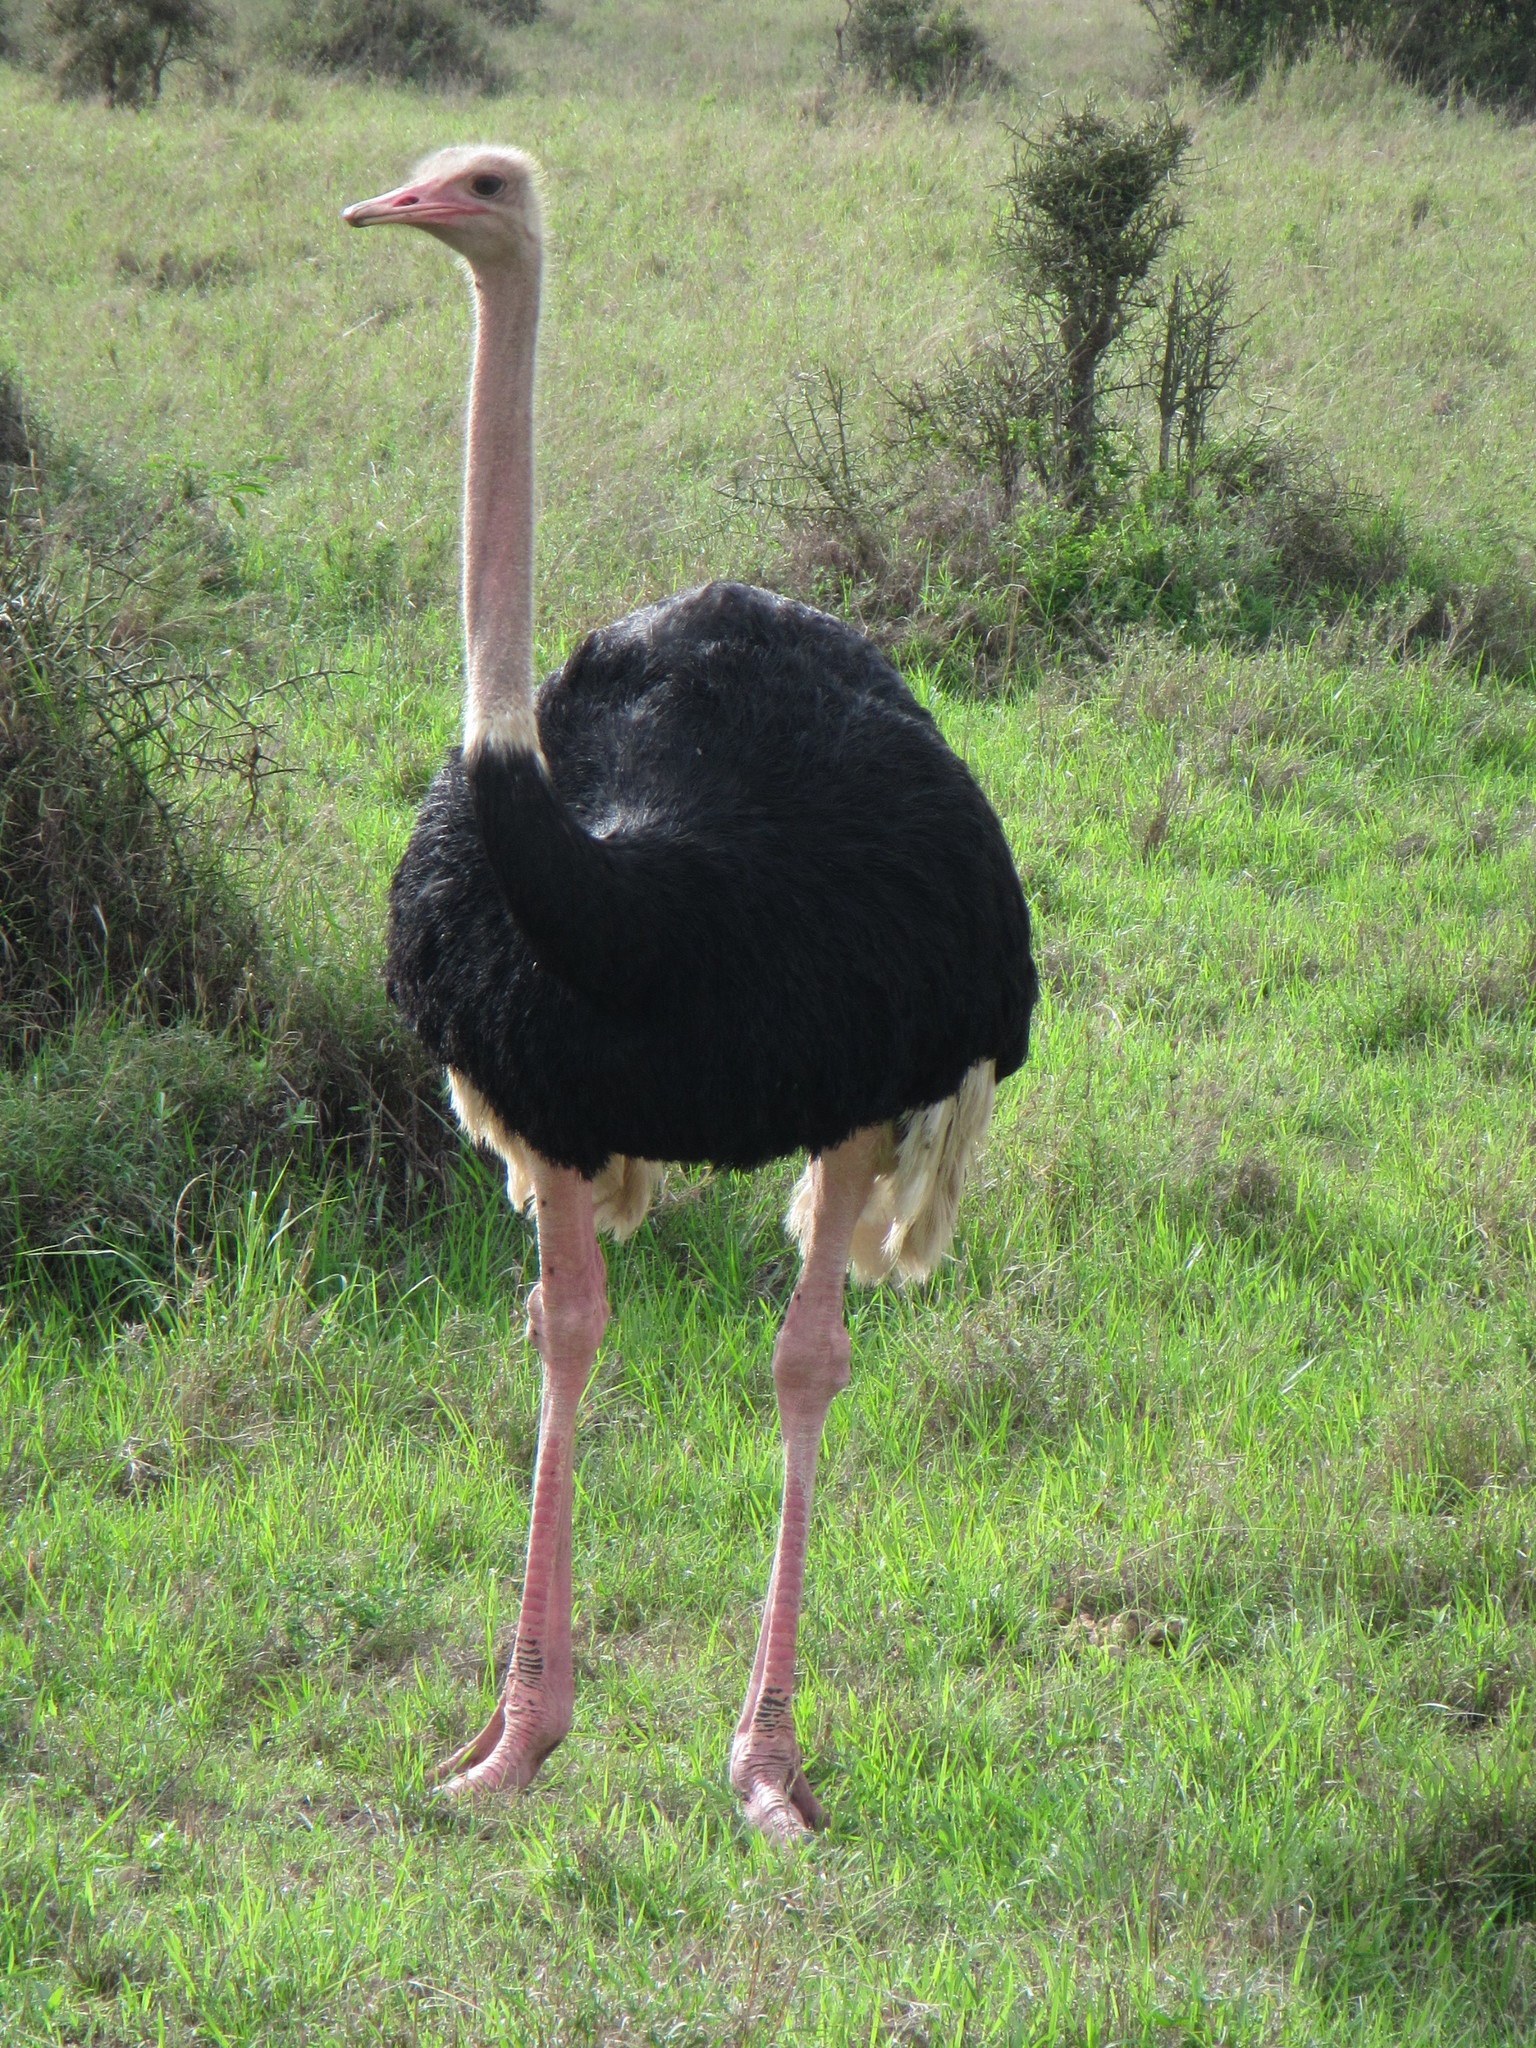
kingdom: Animalia
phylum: Chordata
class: Aves
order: Struthioniformes
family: Struthionidae
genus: Struthio
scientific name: Struthio camelus
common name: Common ostrich
